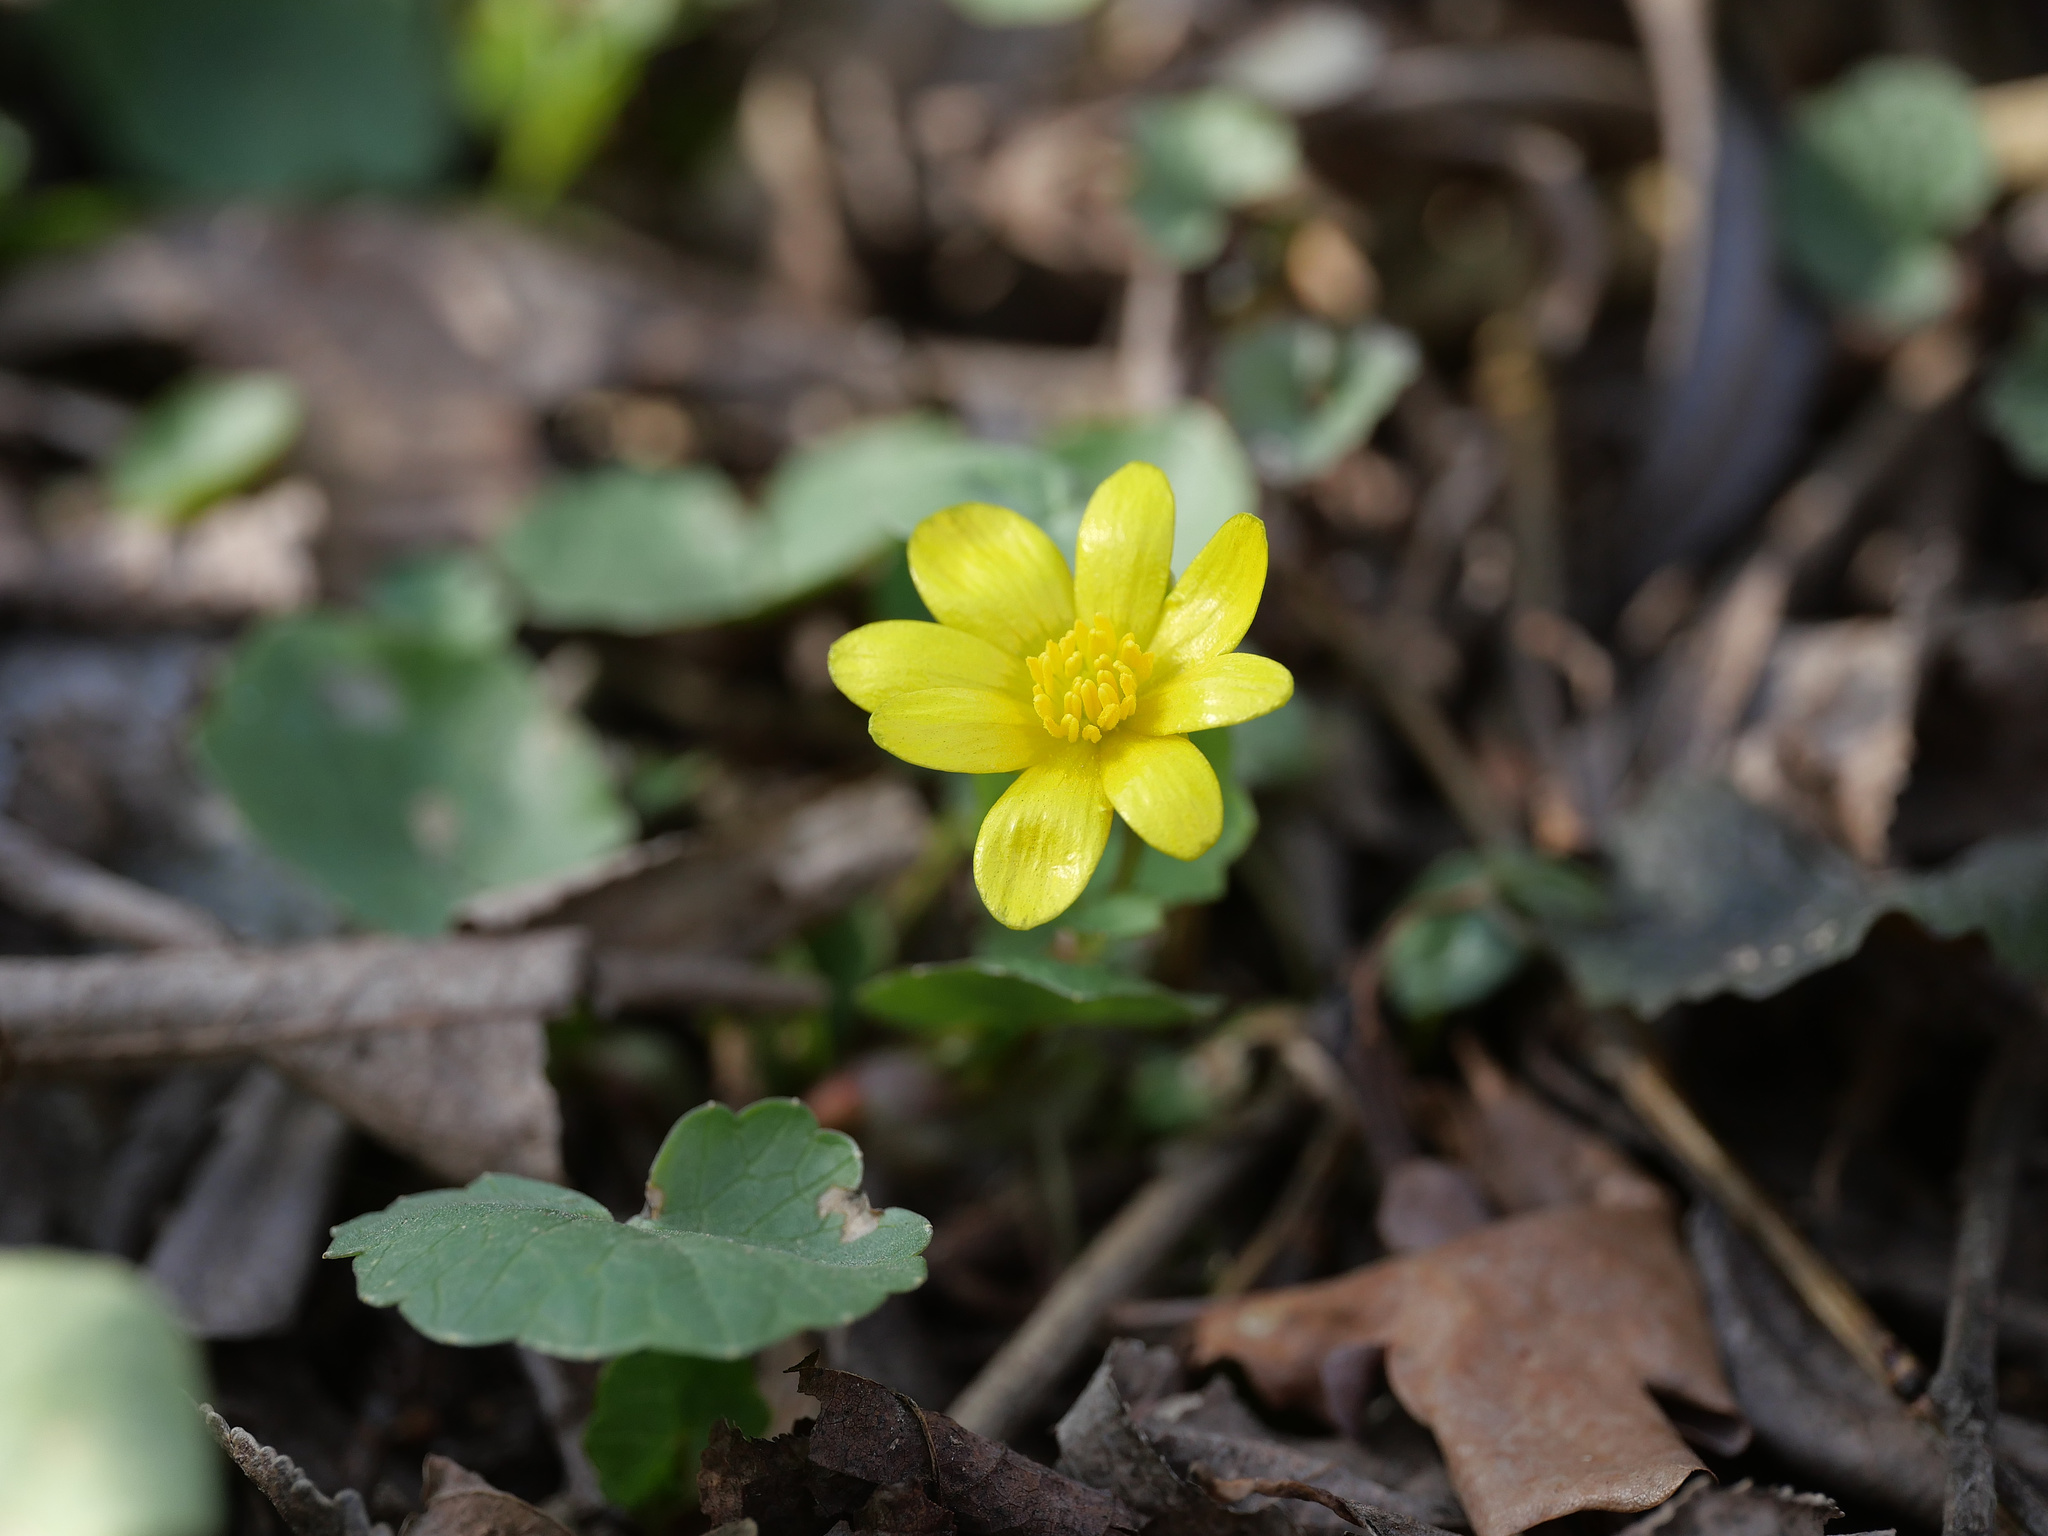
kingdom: Plantae
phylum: Tracheophyta
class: Magnoliopsida
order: Ranunculales
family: Ranunculaceae
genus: Ficaria
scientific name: Ficaria verna
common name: Lesser celandine
